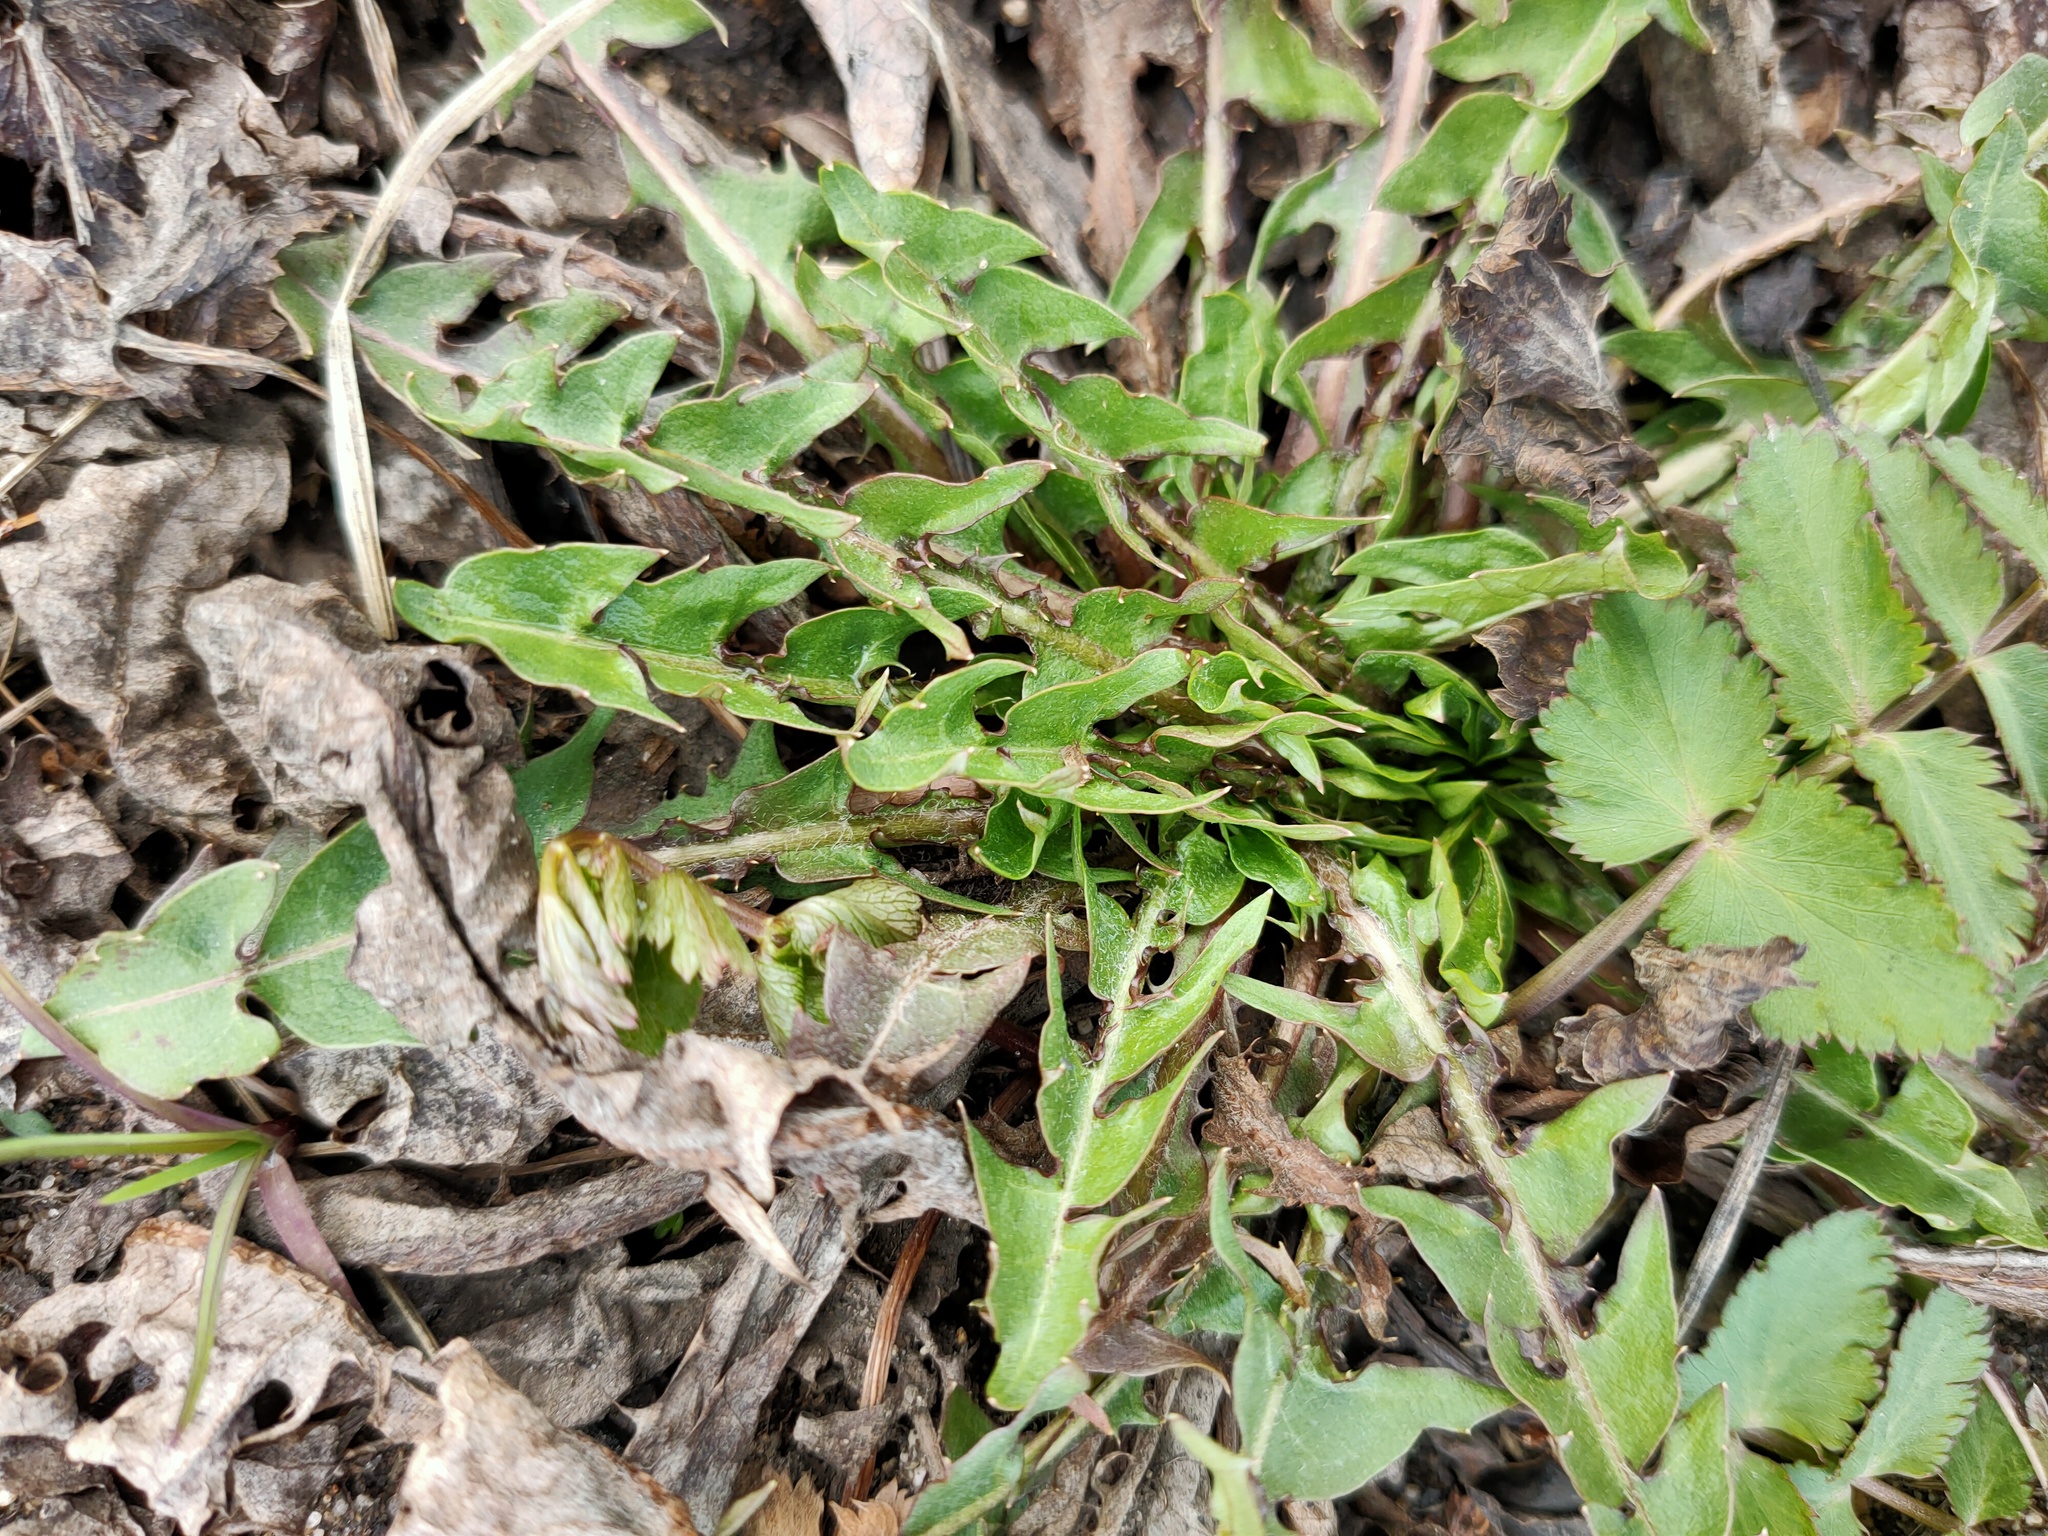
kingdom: Plantae
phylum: Tracheophyta
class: Magnoliopsida
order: Asterales
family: Asteraceae
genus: Taraxacum
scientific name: Taraxacum officinale
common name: Common dandelion
